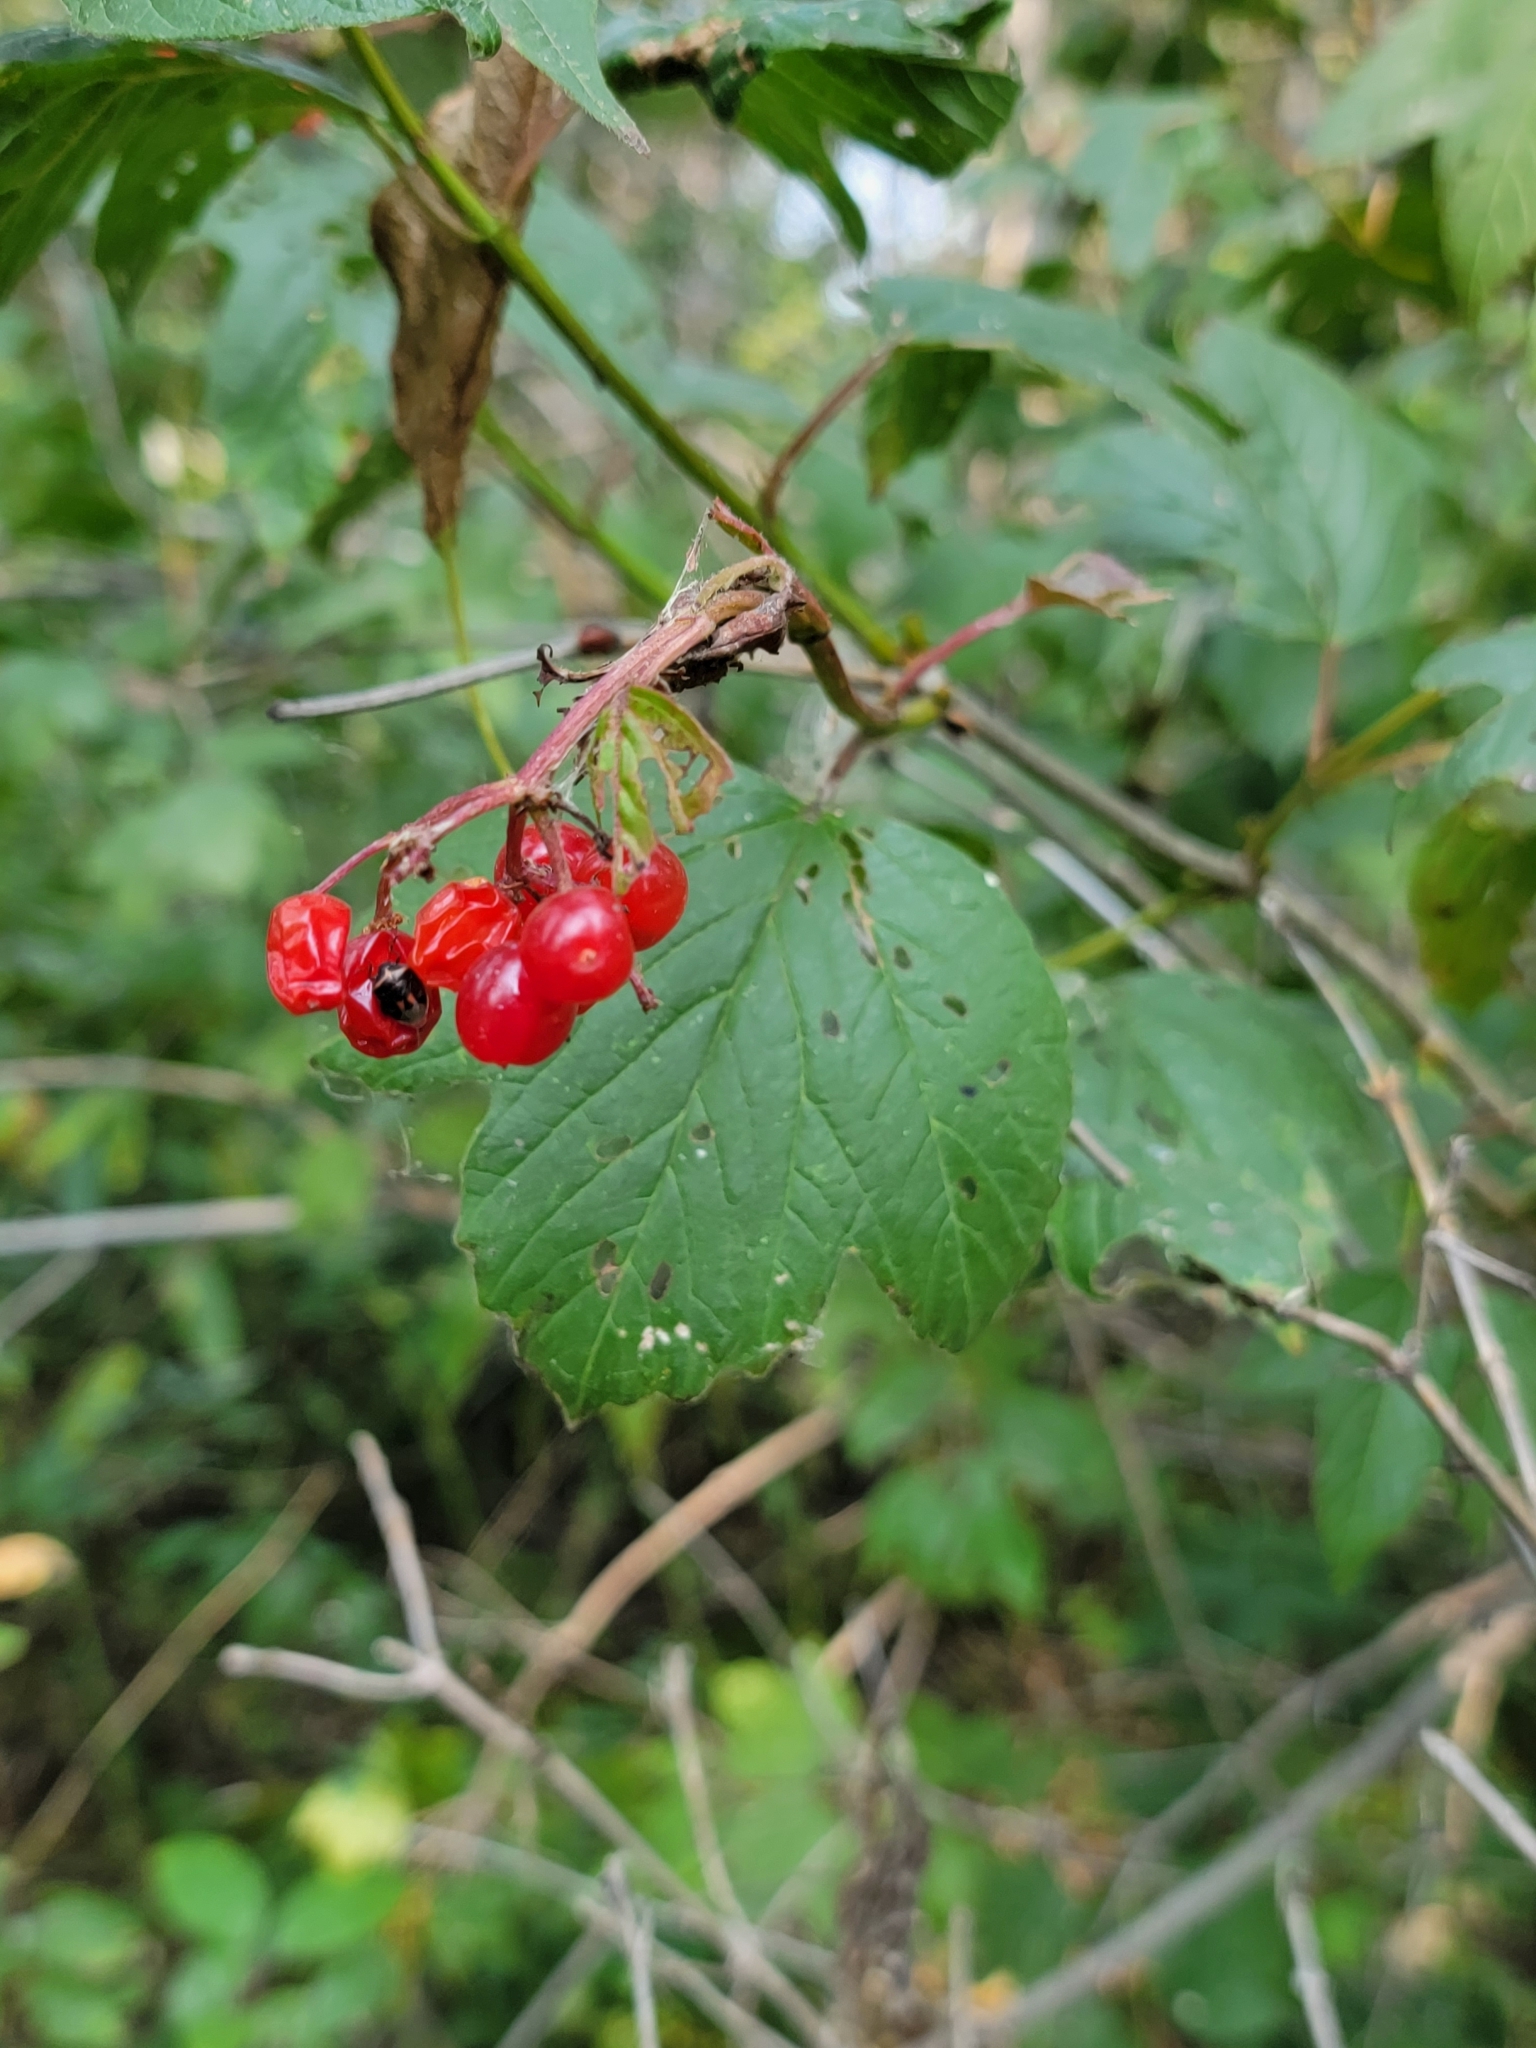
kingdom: Plantae
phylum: Tracheophyta
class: Magnoliopsida
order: Dipsacales
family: Viburnaceae
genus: Viburnum
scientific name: Viburnum edule
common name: Mooseberry
